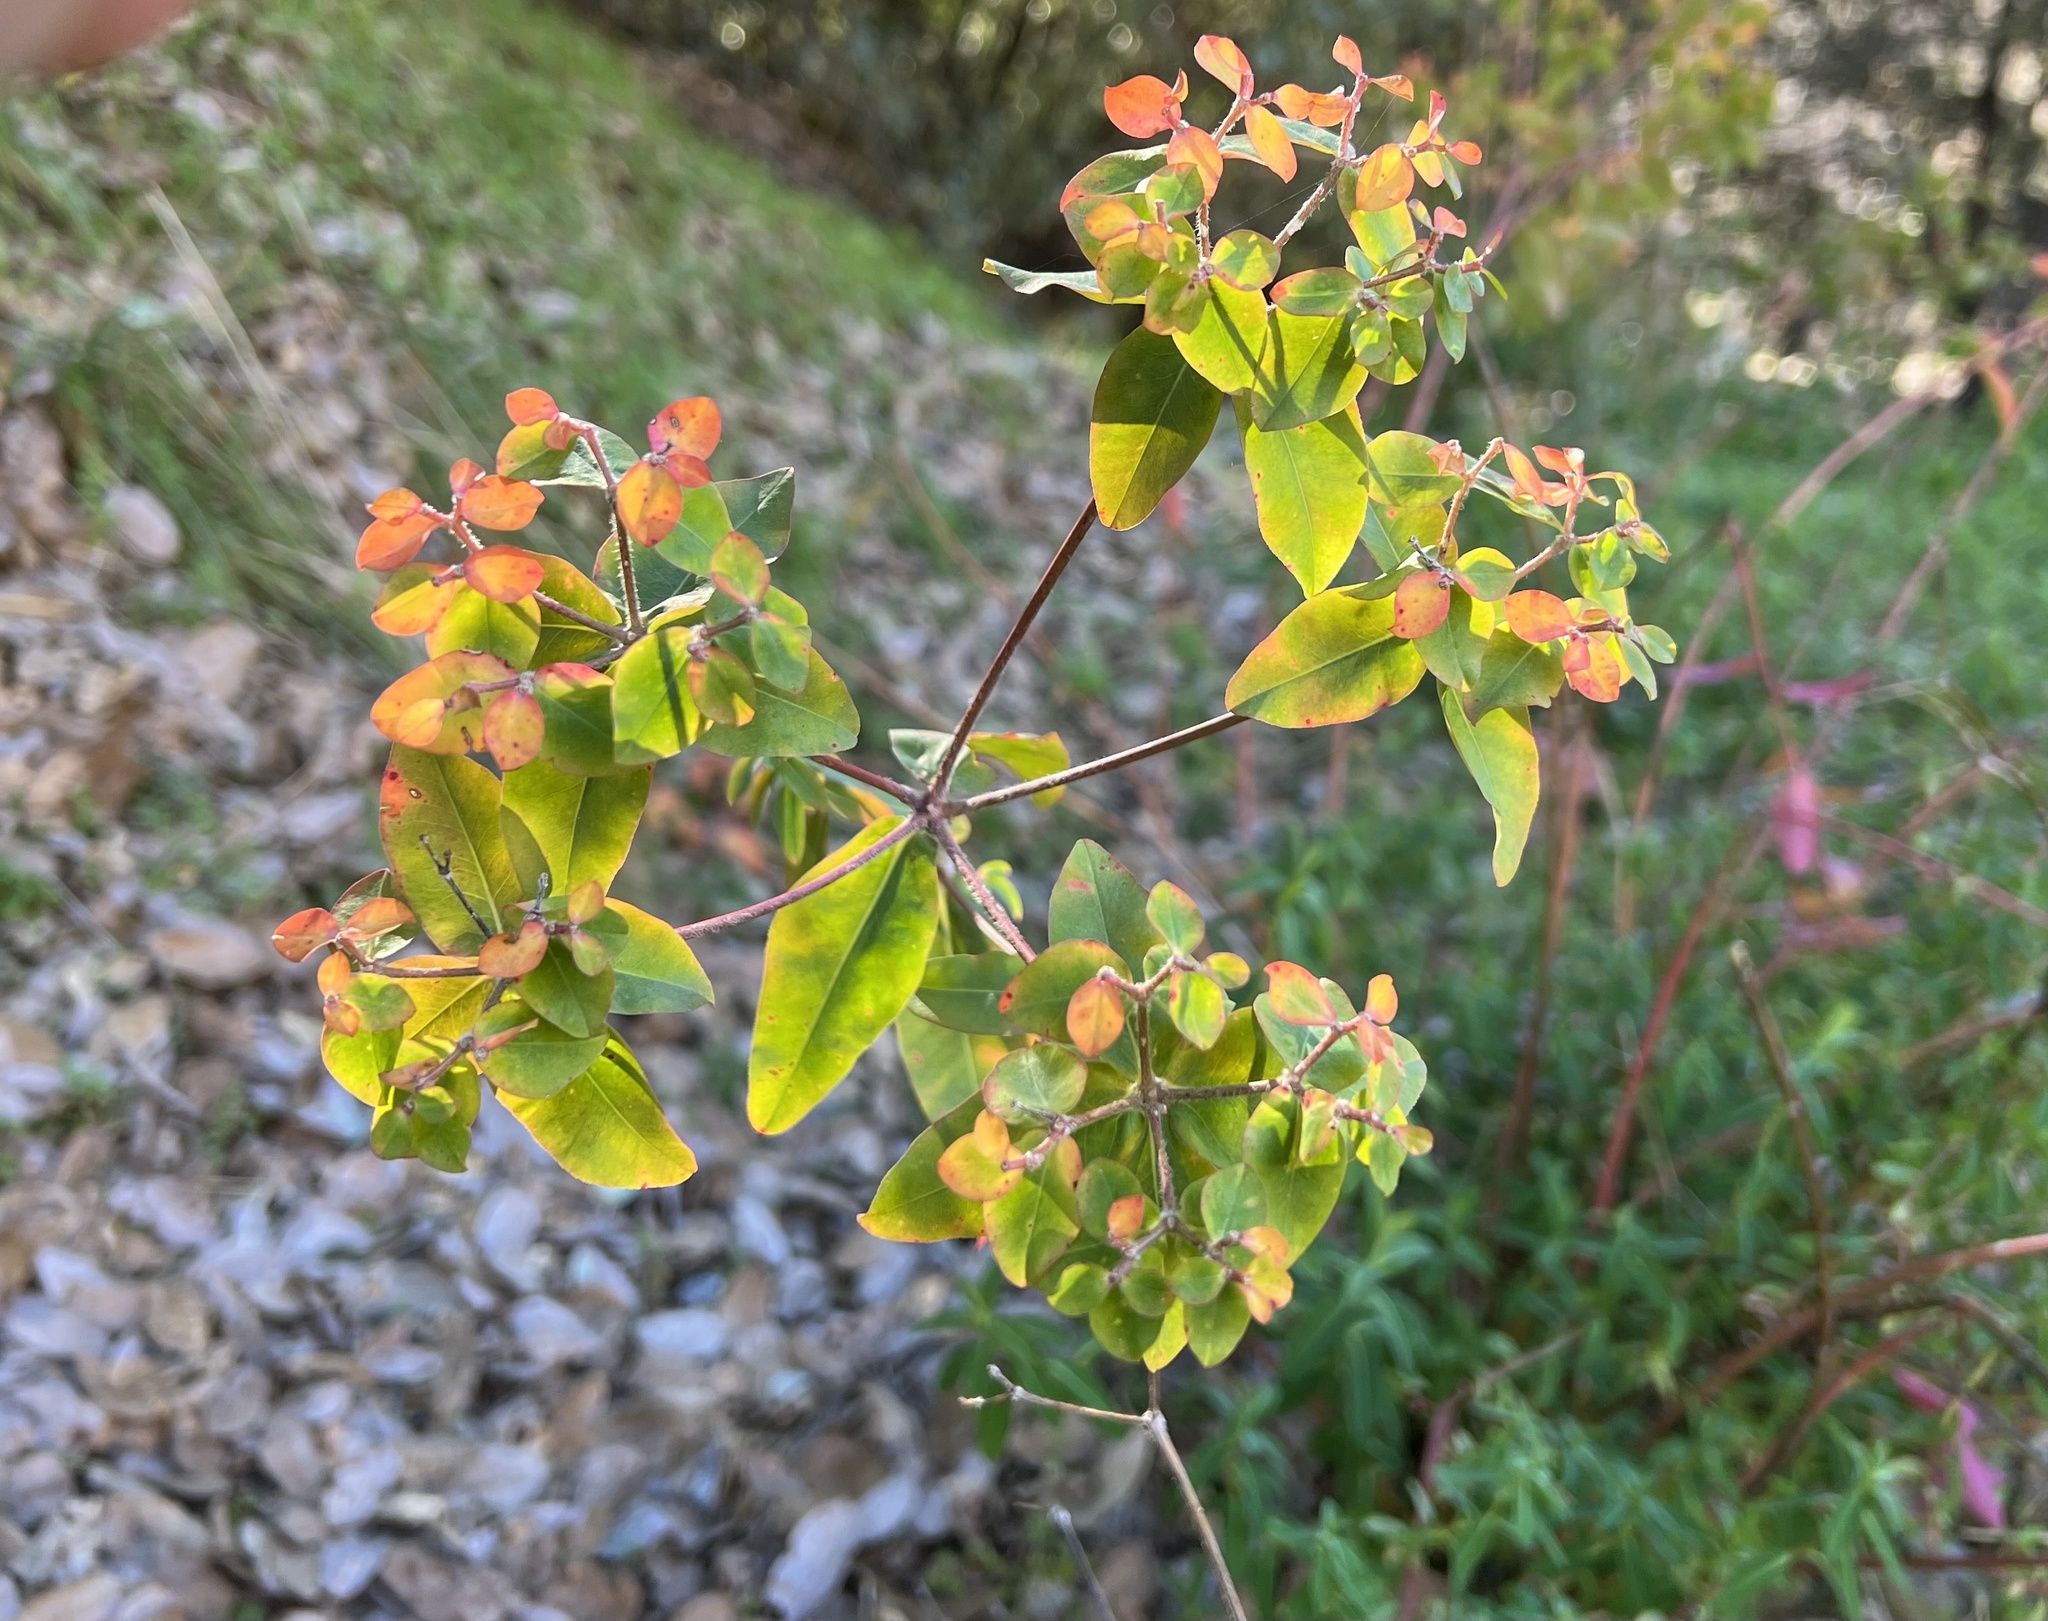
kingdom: Plantae
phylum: Tracheophyta
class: Magnoliopsida
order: Malpighiales
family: Euphorbiaceae
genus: Euphorbia
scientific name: Euphorbia oblongata
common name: Balkan spurge
